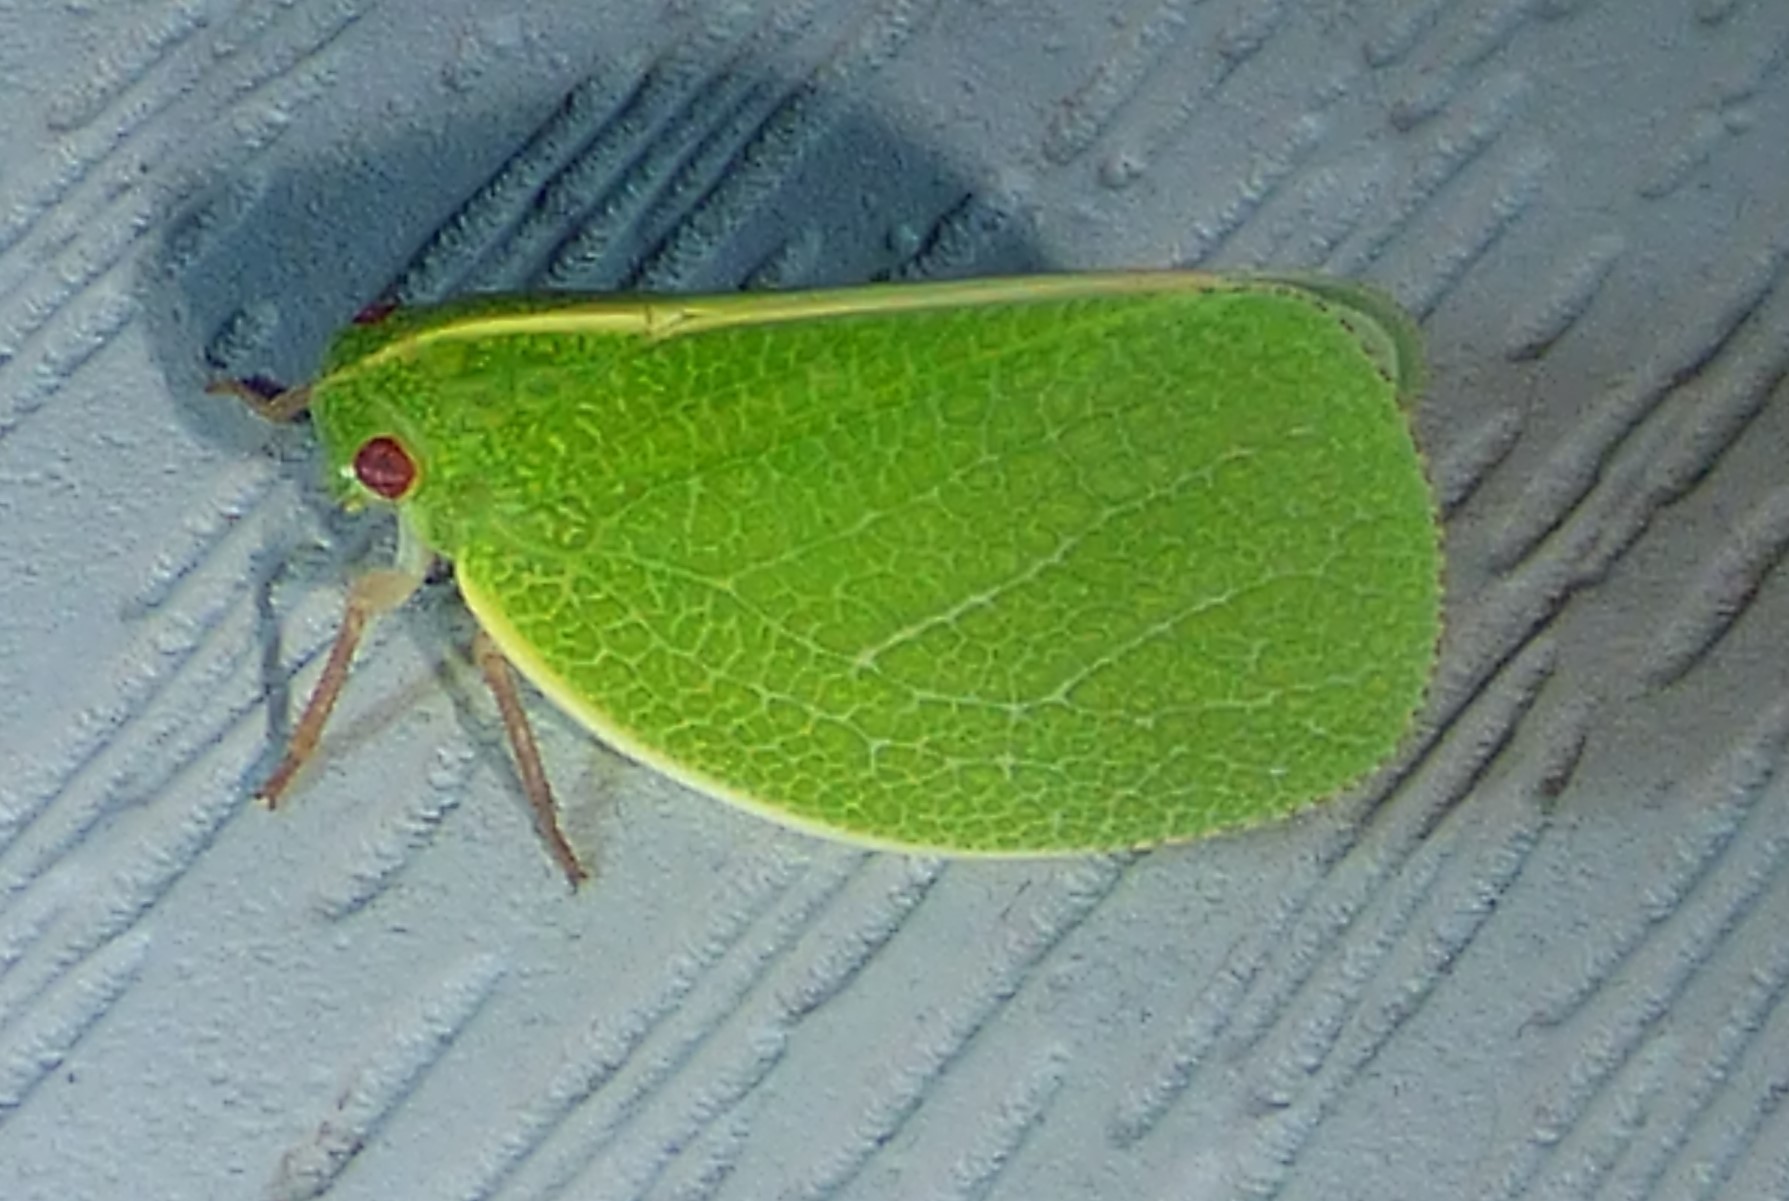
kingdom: Animalia
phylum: Arthropoda
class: Insecta
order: Hemiptera
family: Acanaloniidae
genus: Acanalonia
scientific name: Acanalonia servillei
